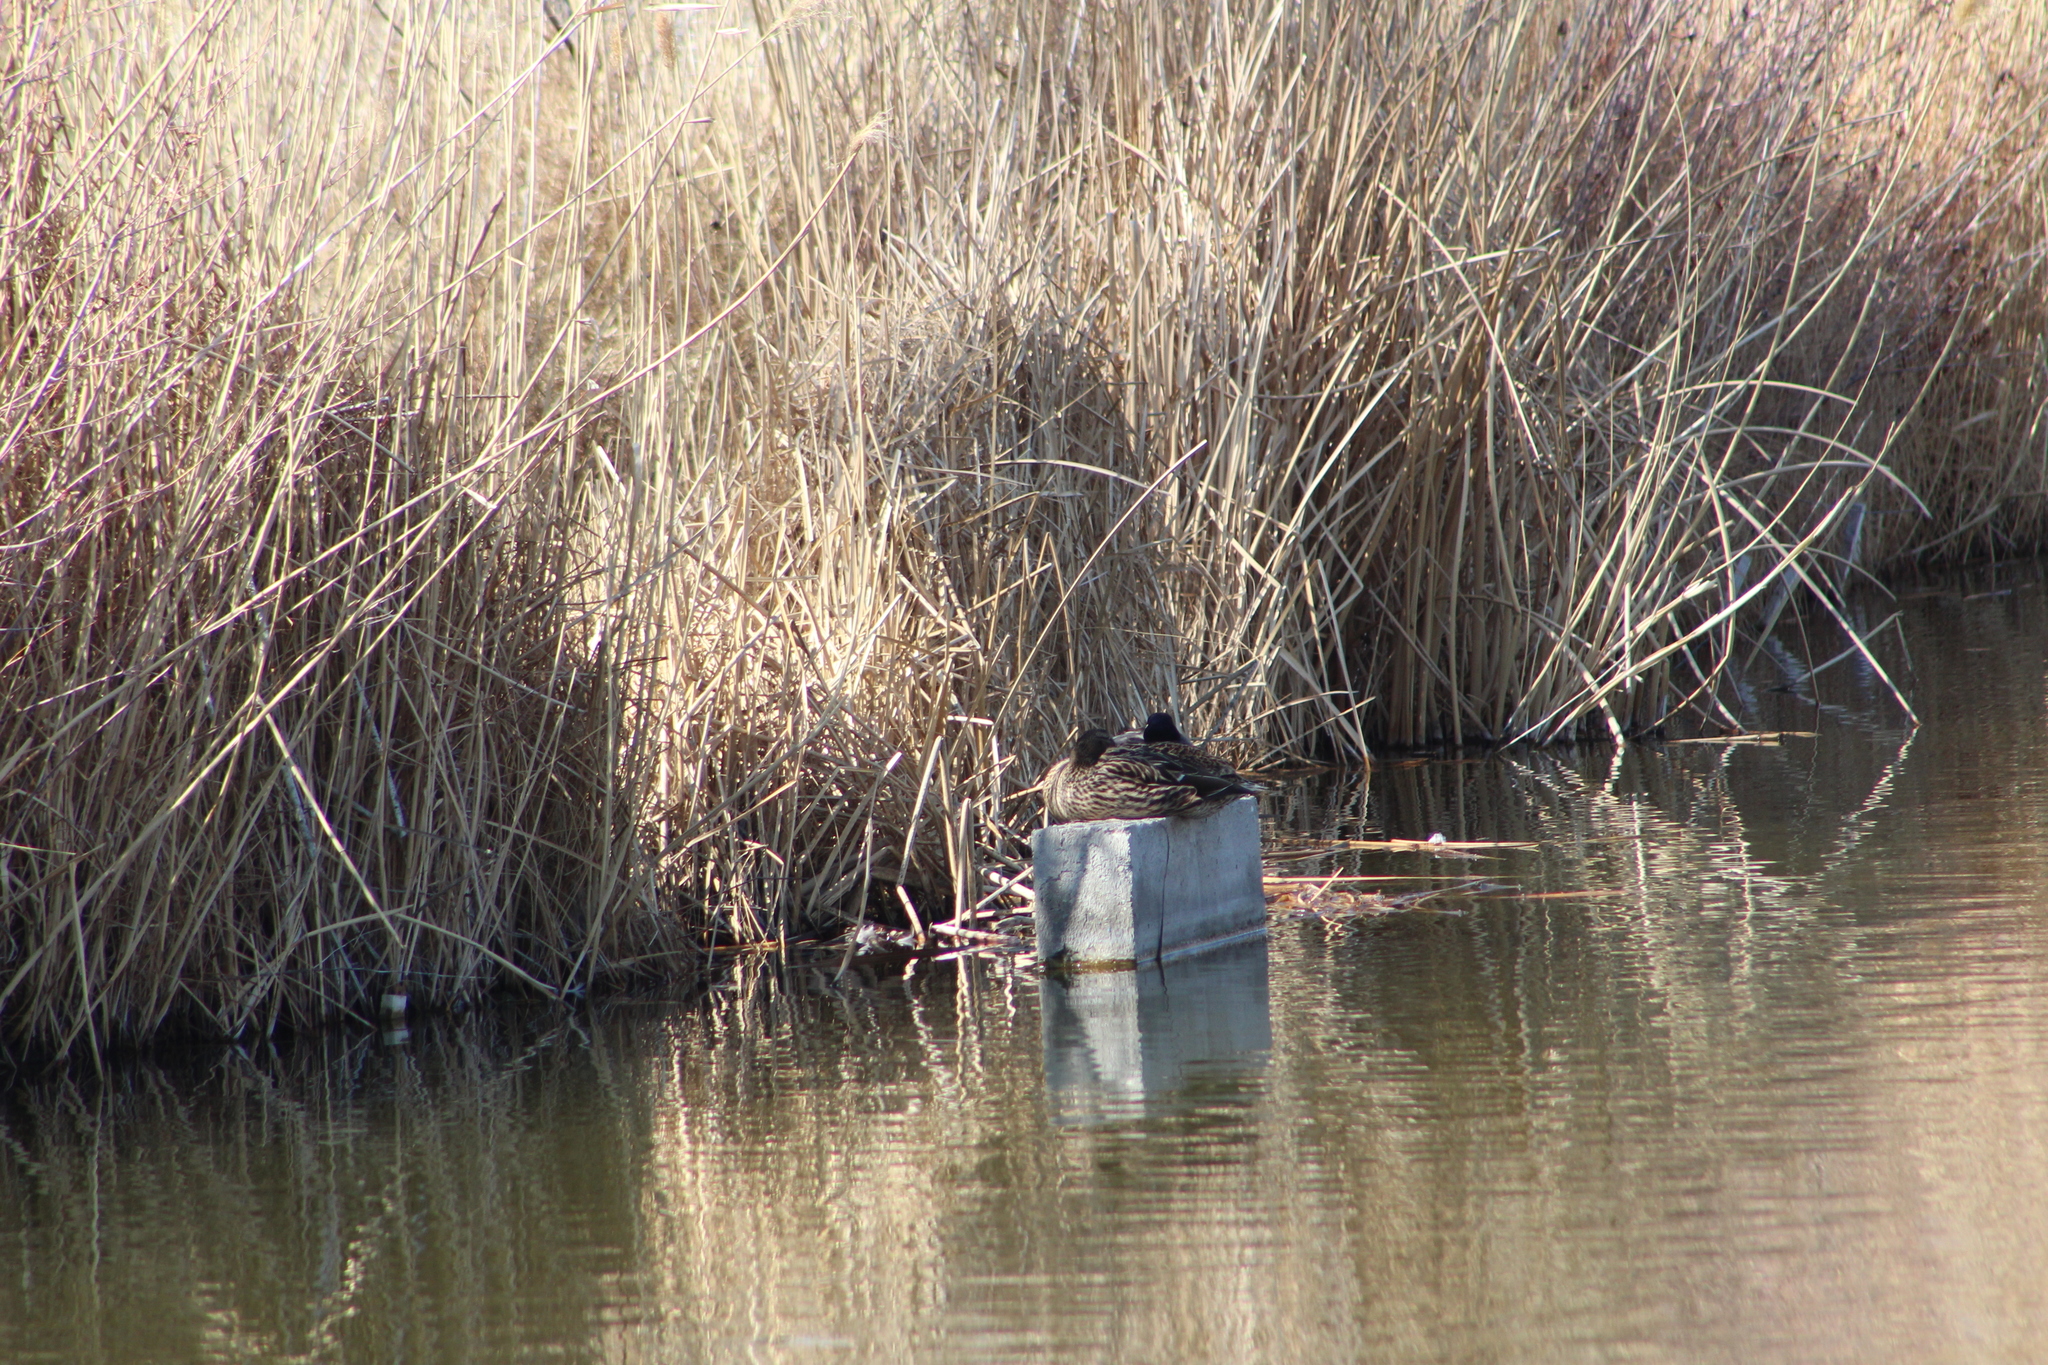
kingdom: Animalia
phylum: Chordata
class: Aves
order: Anseriformes
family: Anatidae
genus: Anas
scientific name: Anas platyrhynchos
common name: Mallard
